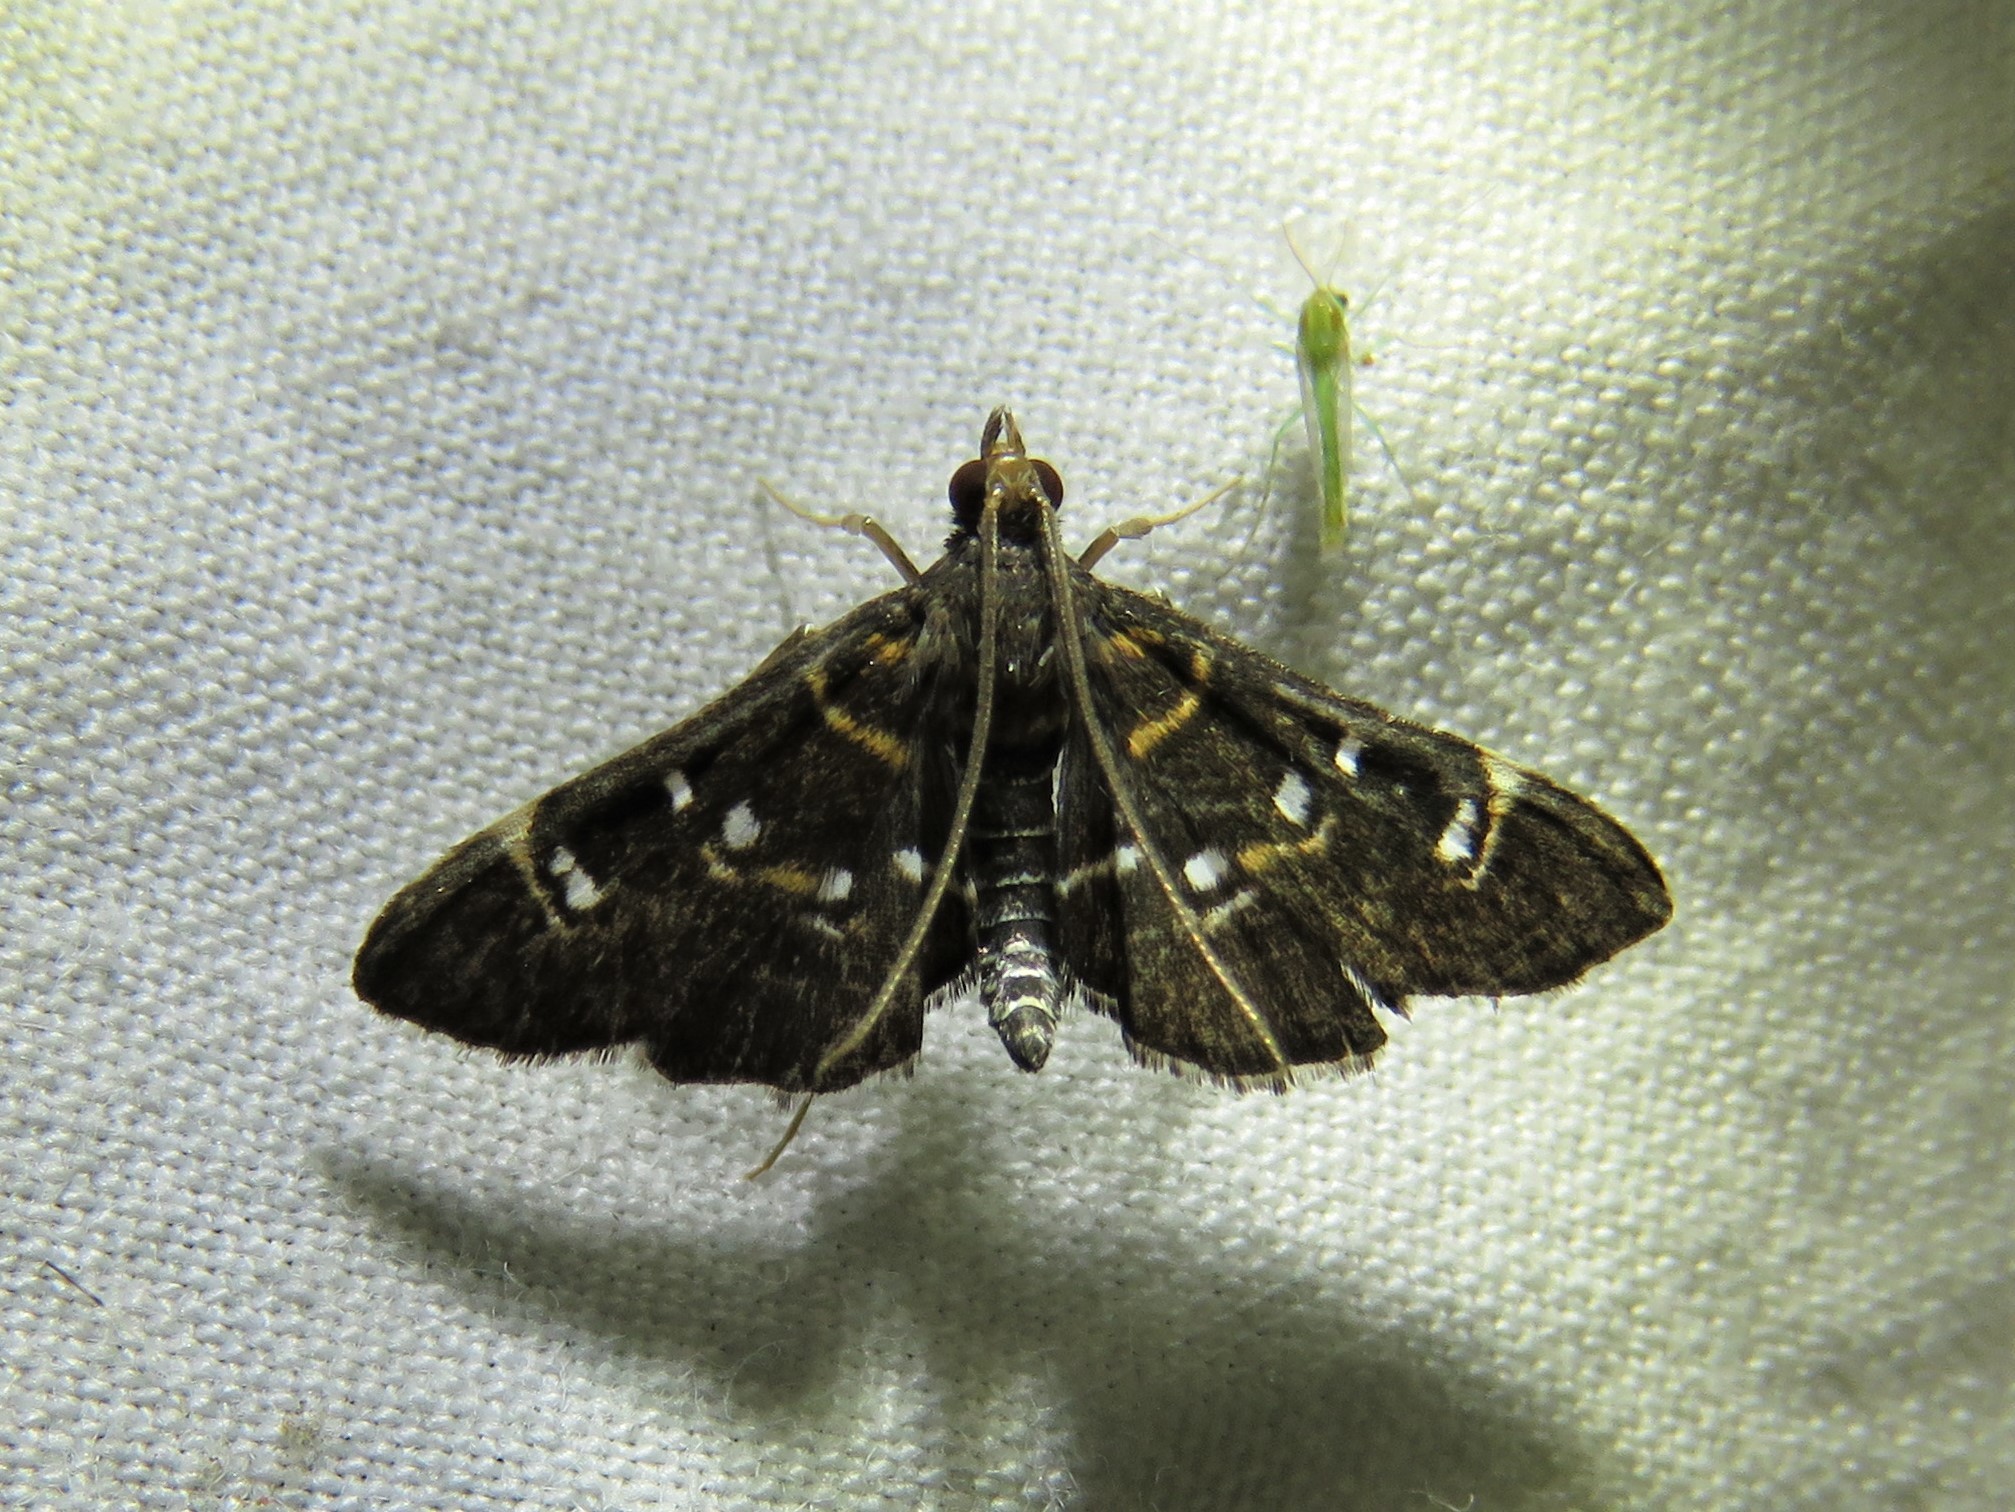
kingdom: Animalia
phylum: Arthropoda
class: Insecta
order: Lepidoptera
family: Crambidae
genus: Diathrausta
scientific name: Diathrausta harlequinalis
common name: Harlequin webworm moth
